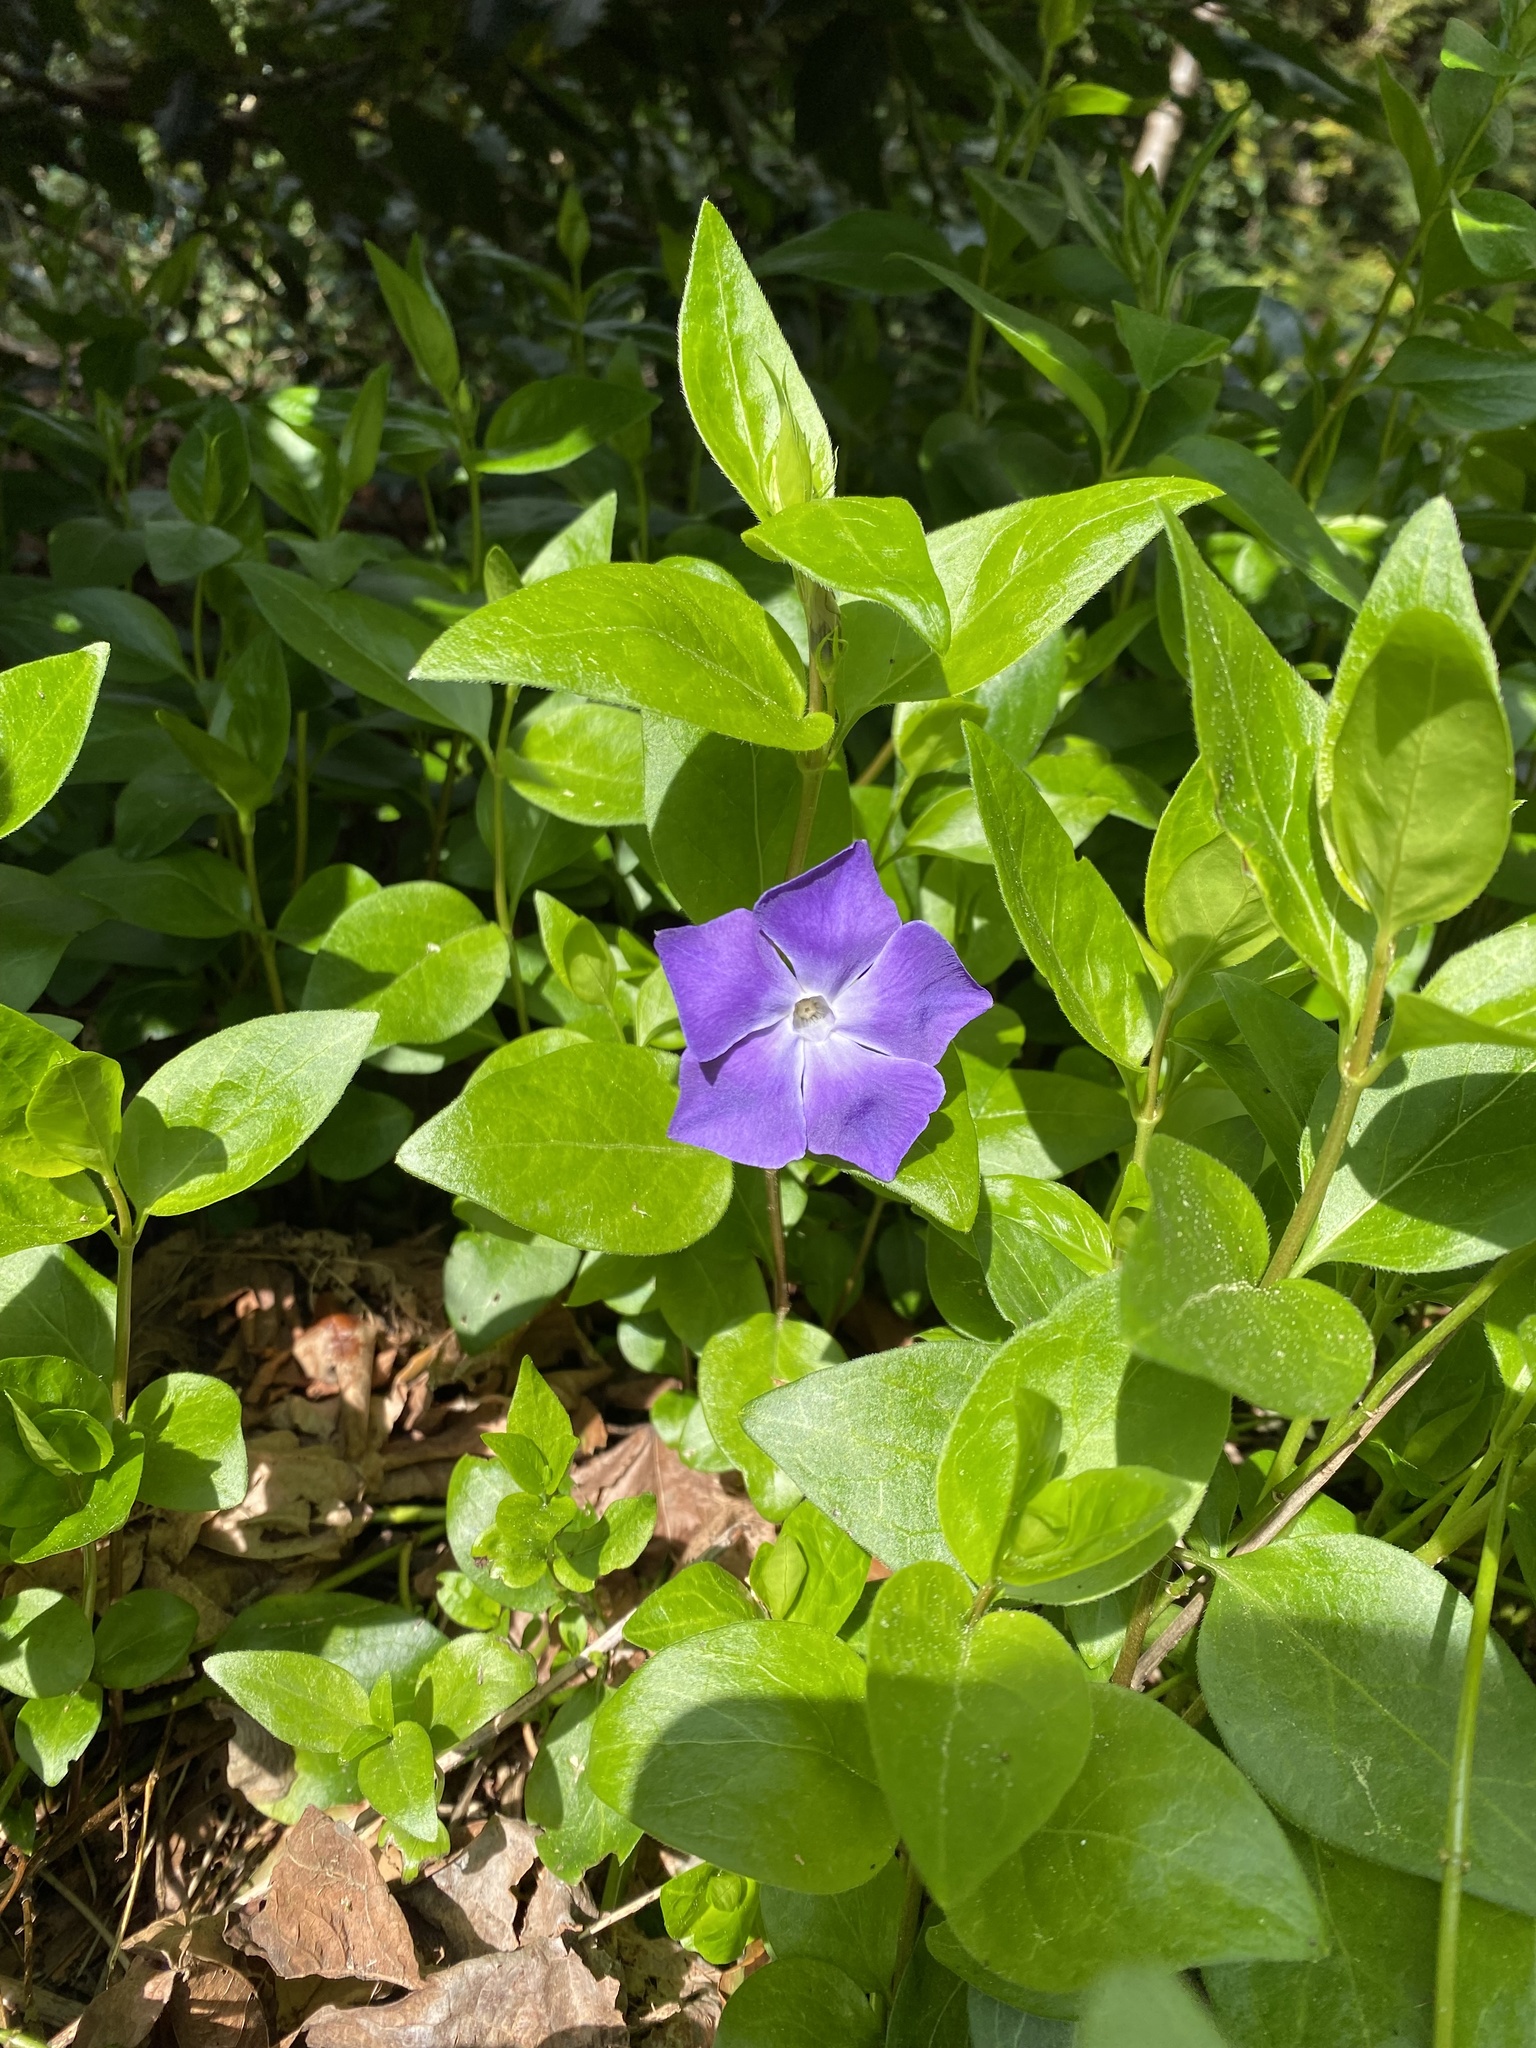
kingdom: Plantae
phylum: Tracheophyta
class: Magnoliopsida
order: Gentianales
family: Apocynaceae
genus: Vinca
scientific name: Vinca major
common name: Greater periwinkle
